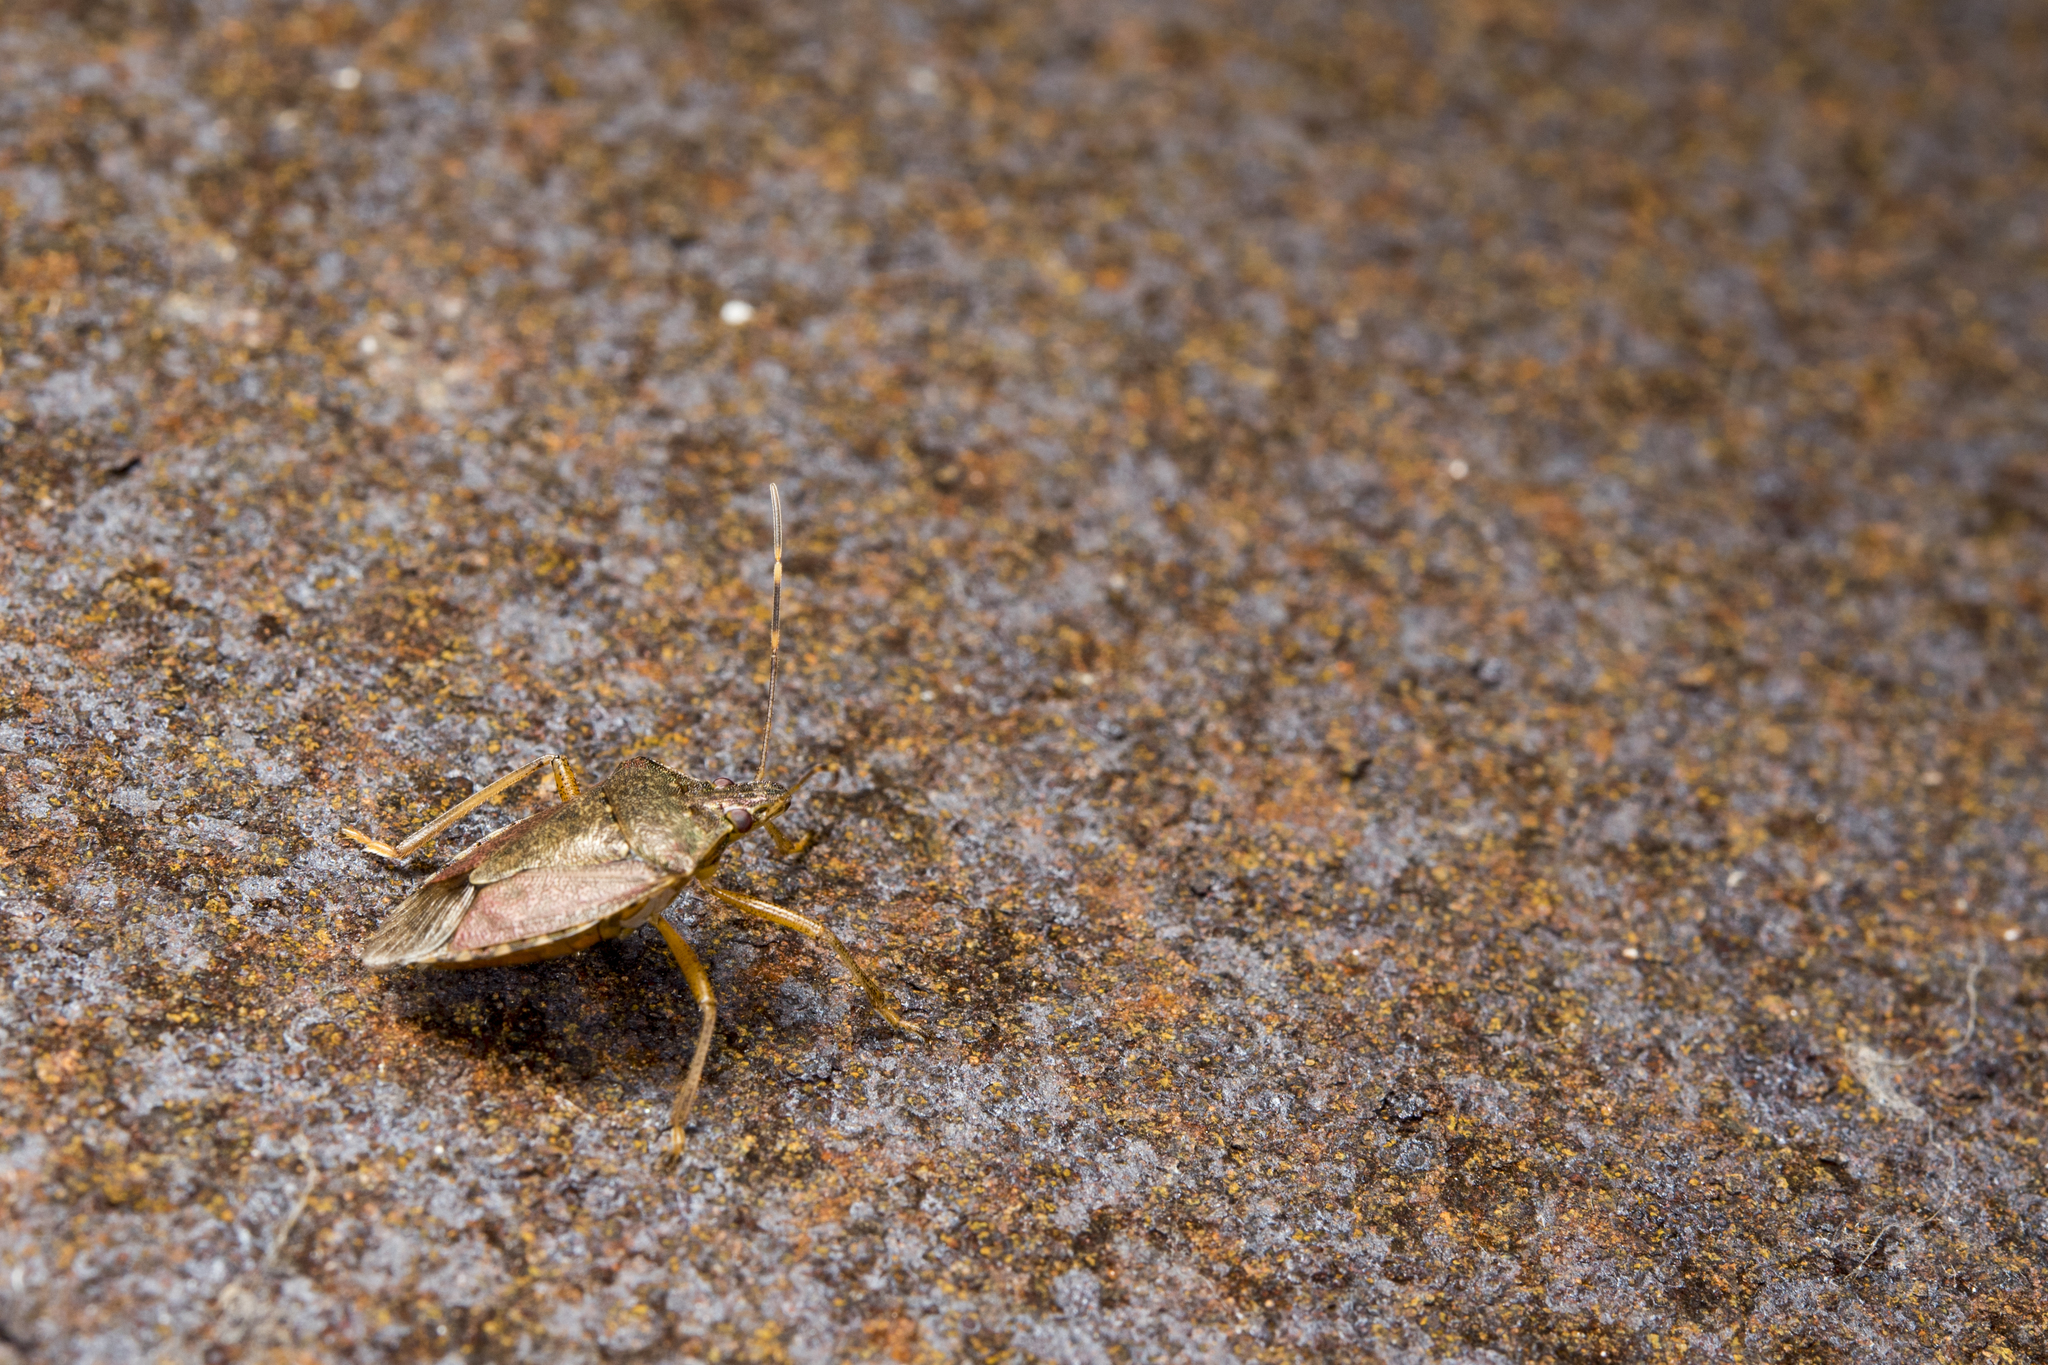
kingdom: Animalia
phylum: Arthropoda
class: Insecta
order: Hemiptera
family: Pentatomidae
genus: Halyomorpha
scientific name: Halyomorpha halys
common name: Brown marmorated stink bug
